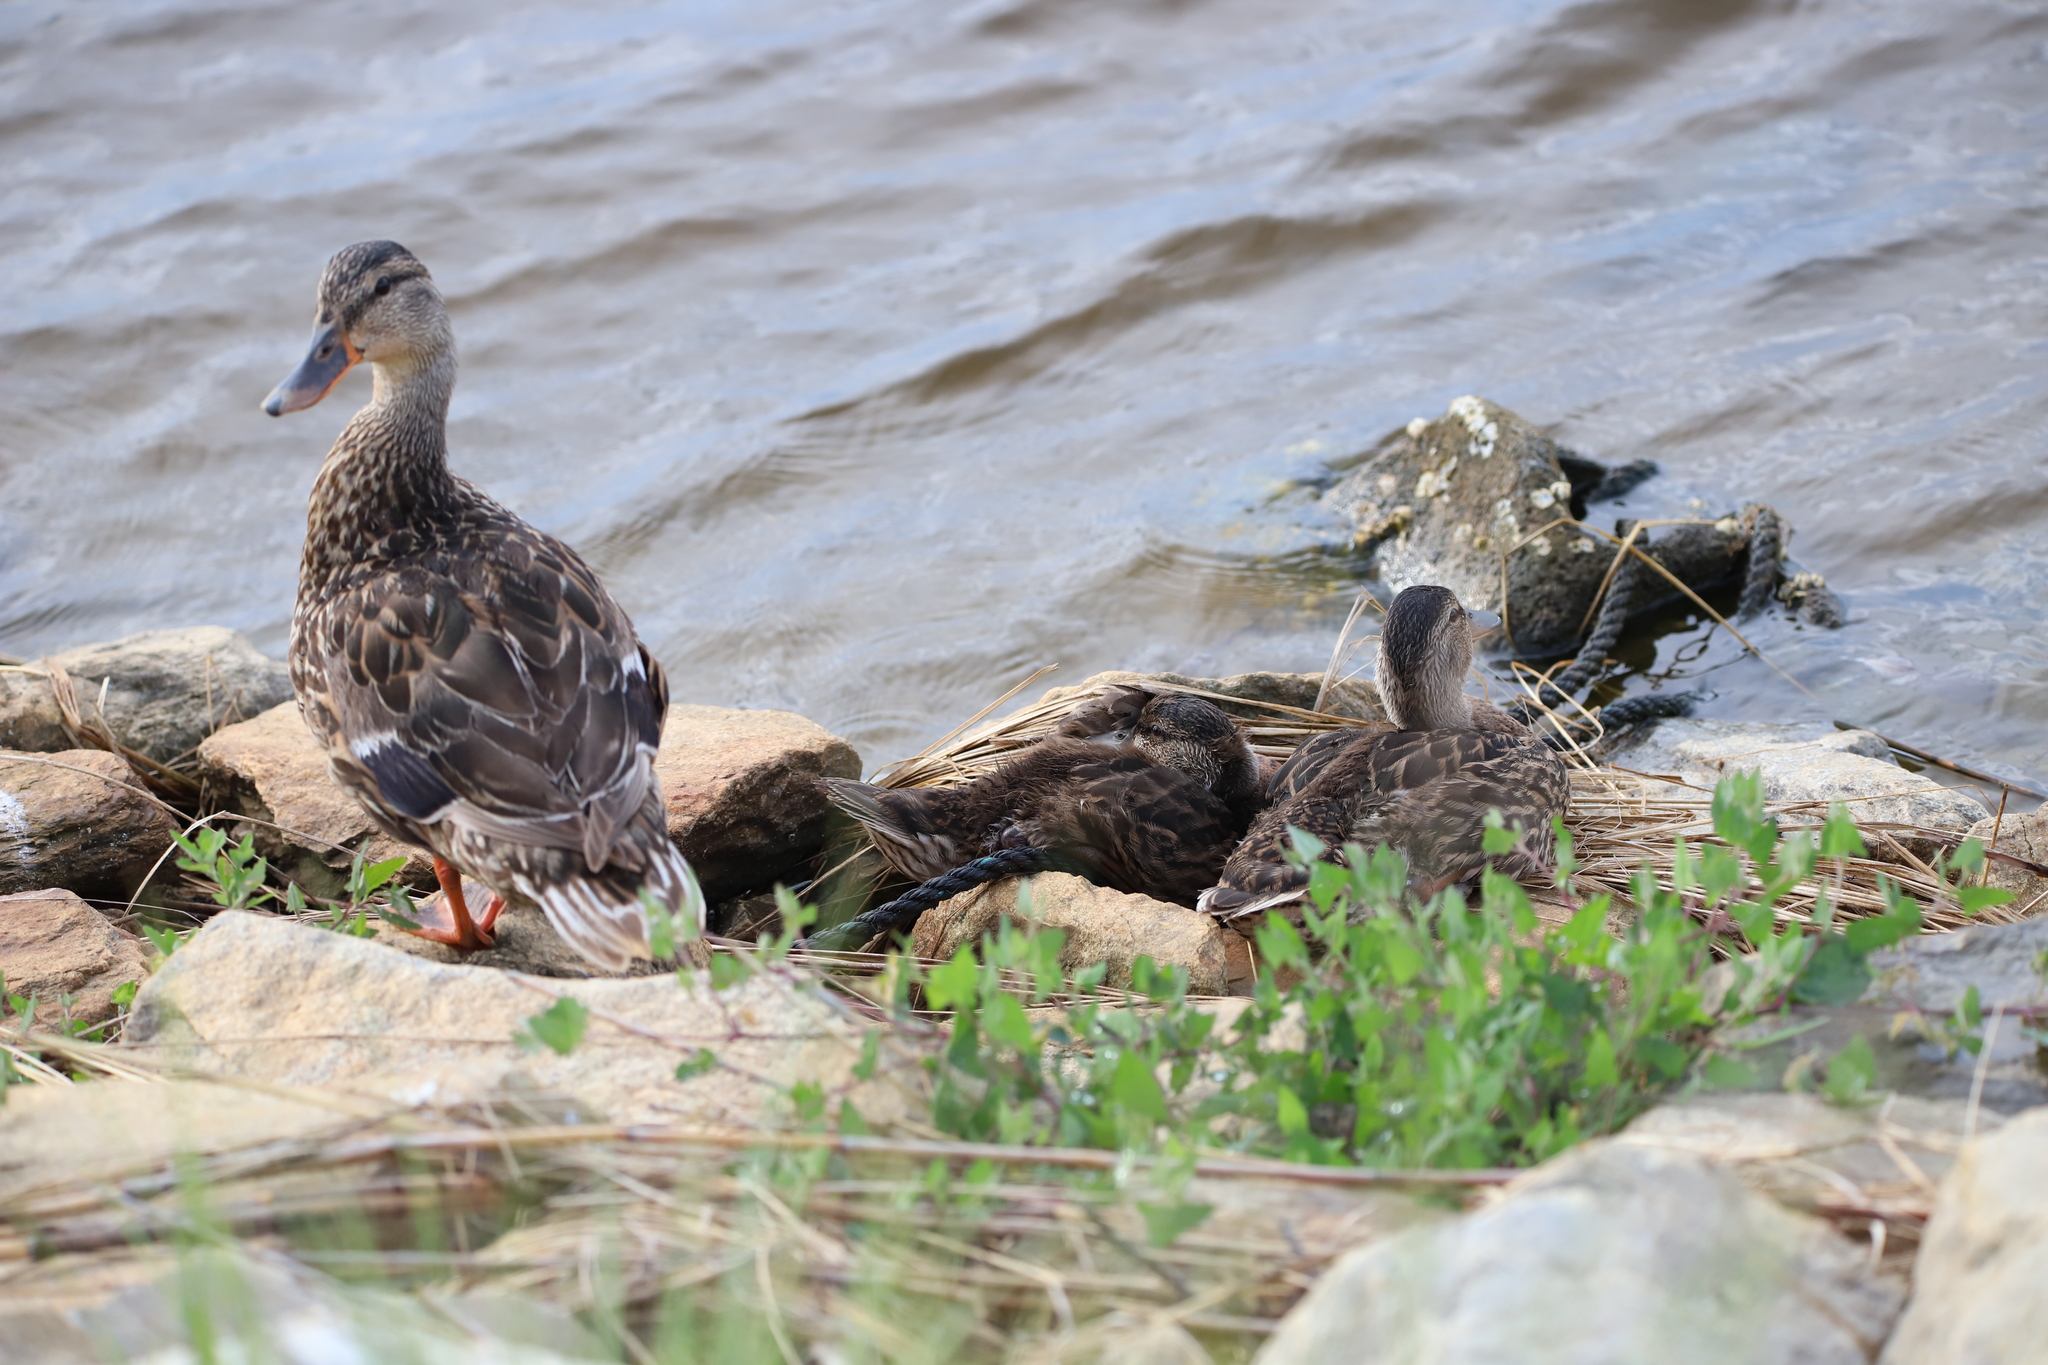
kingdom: Animalia
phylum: Chordata
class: Aves
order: Anseriformes
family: Anatidae
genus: Anas
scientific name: Anas platyrhynchos
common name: Mallard
